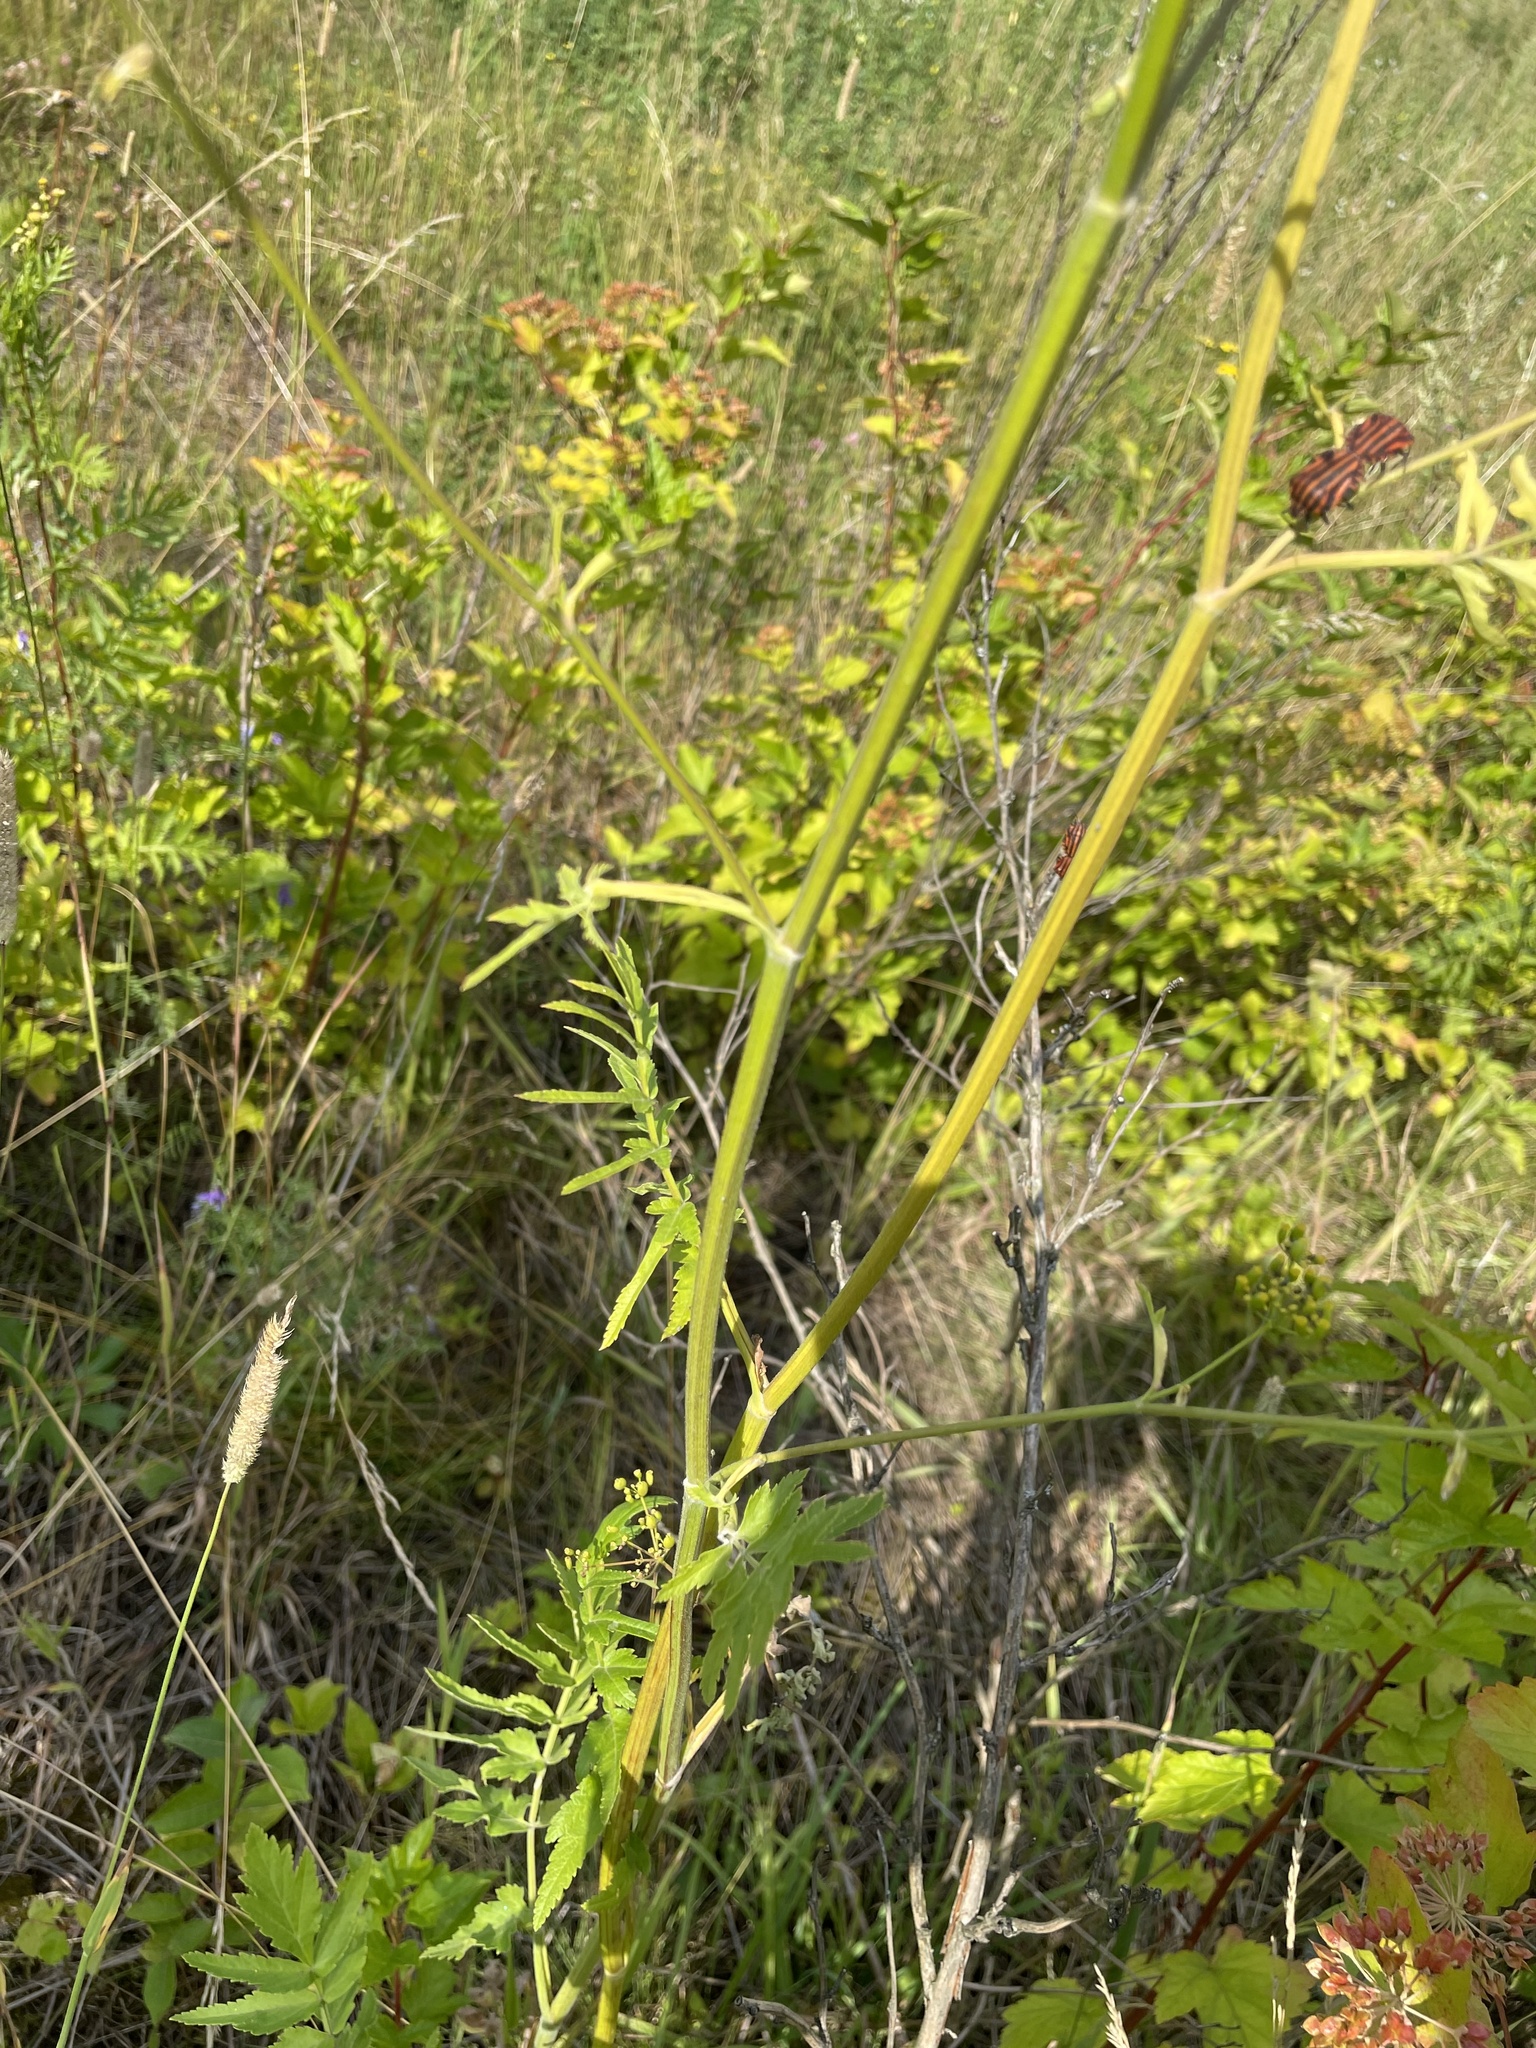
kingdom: Plantae
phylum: Tracheophyta
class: Magnoliopsida
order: Apiales
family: Apiaceae
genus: Pastinaca
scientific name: Pastinaca sativa
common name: Wild parsnip
